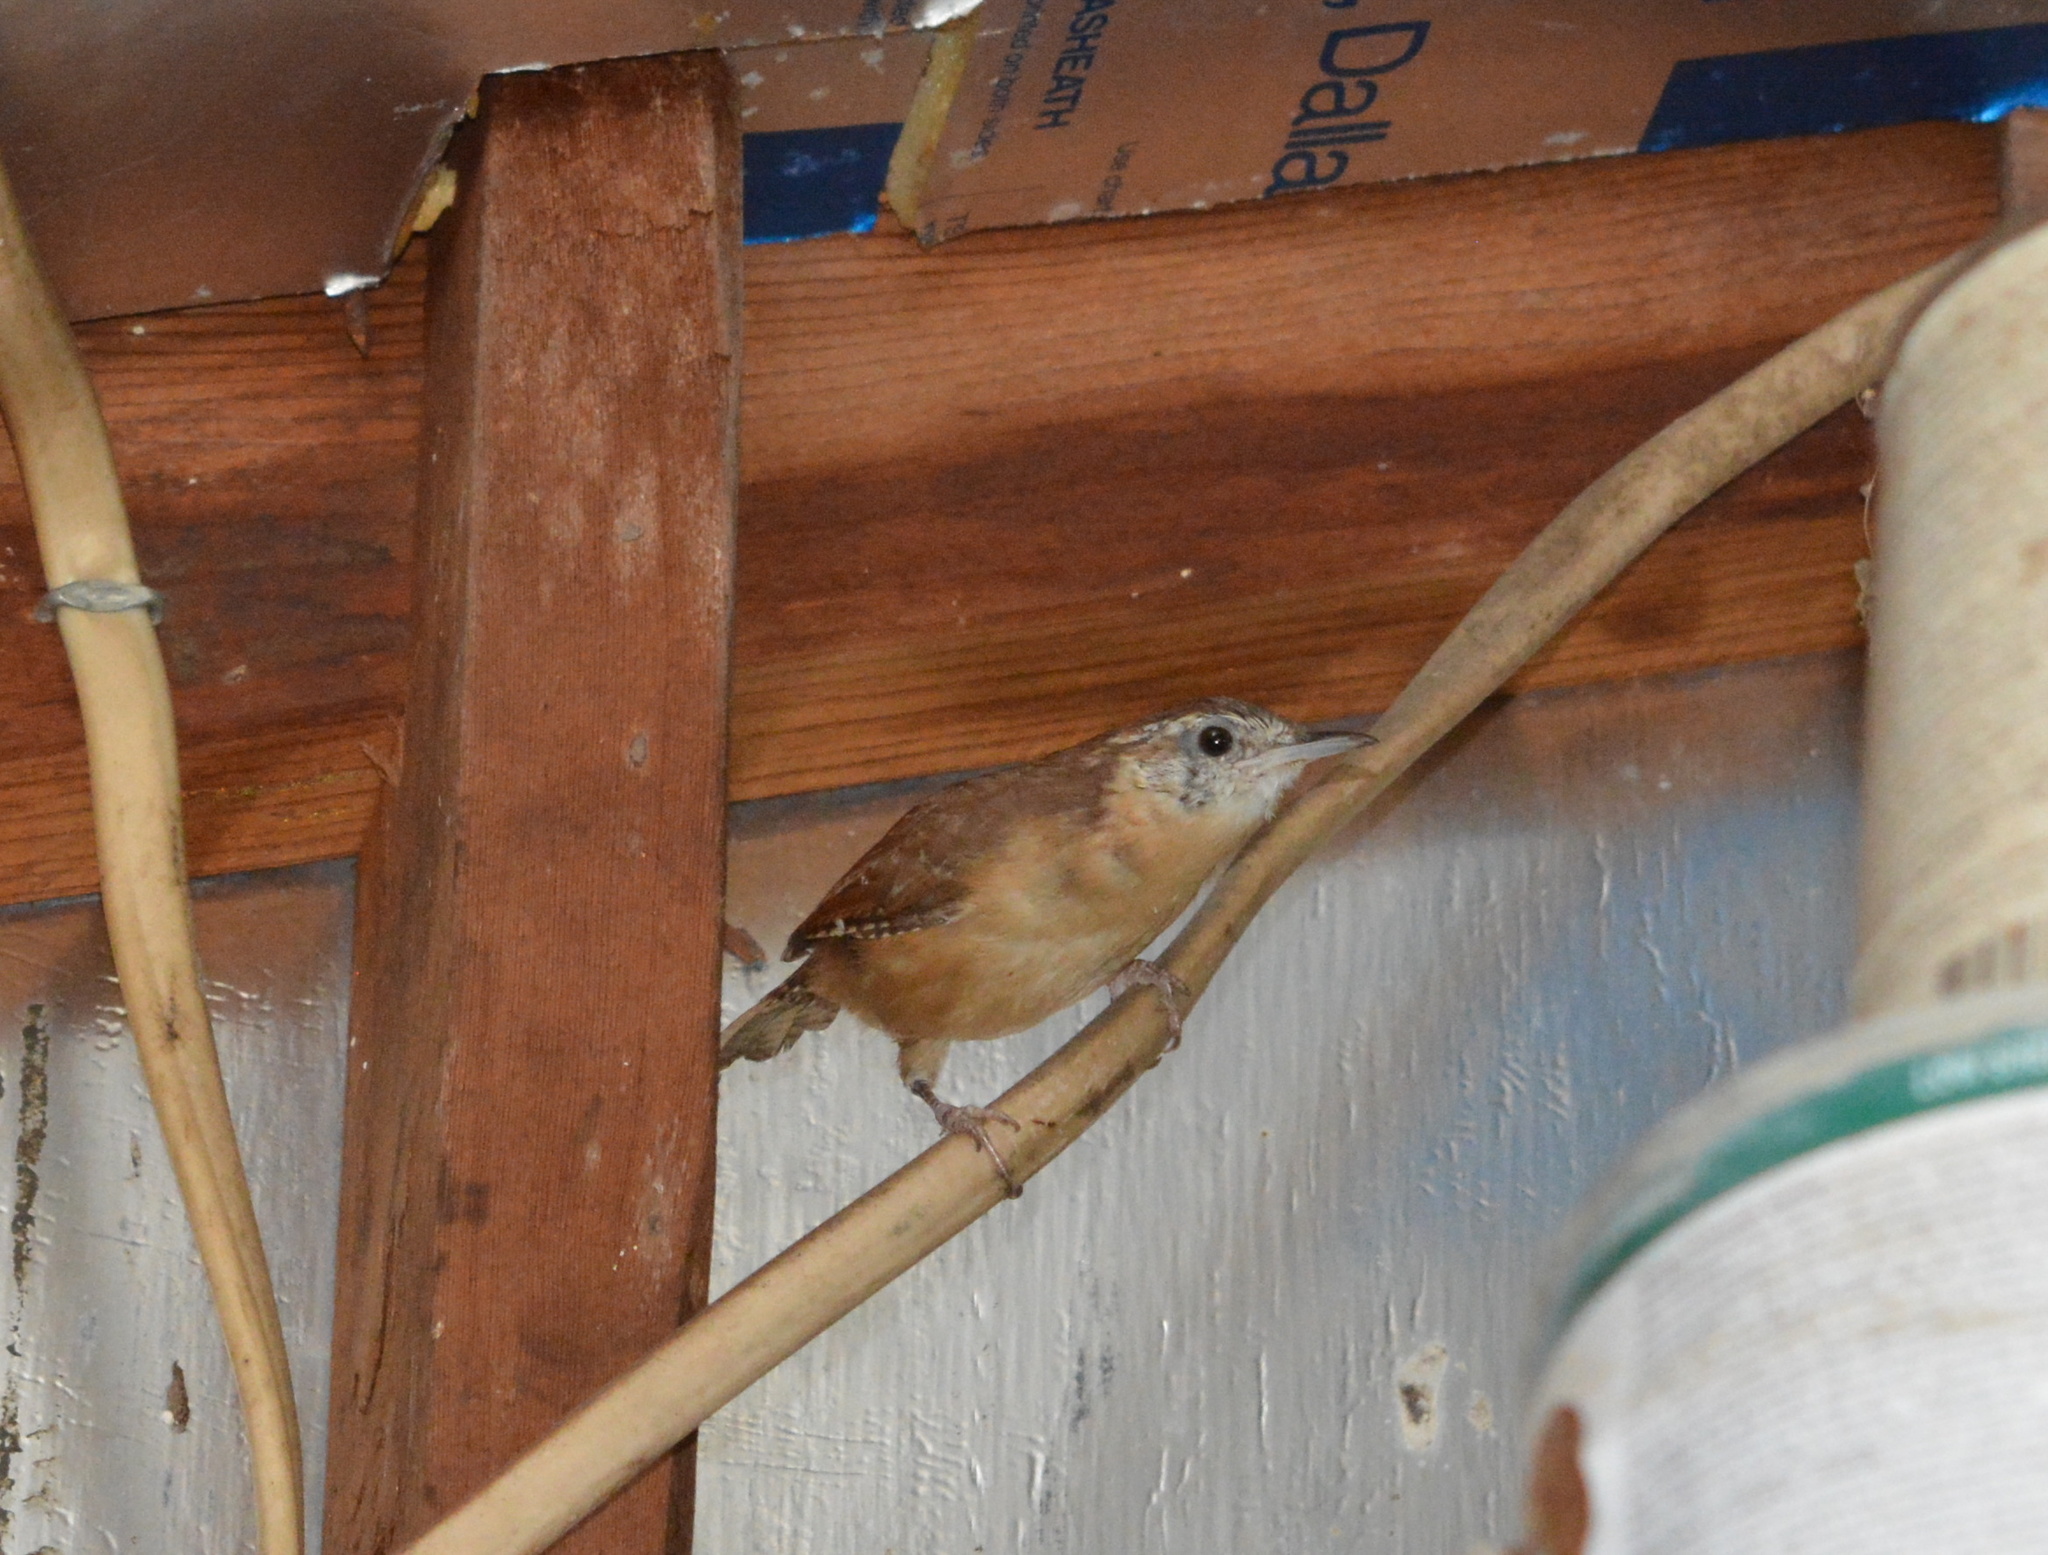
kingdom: Animalia
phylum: Chordata
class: Aves
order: Passeriformes
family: Troglodytidae
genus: Thryothorus
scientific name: Thryothorus ludovicianus
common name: Carolina wren
